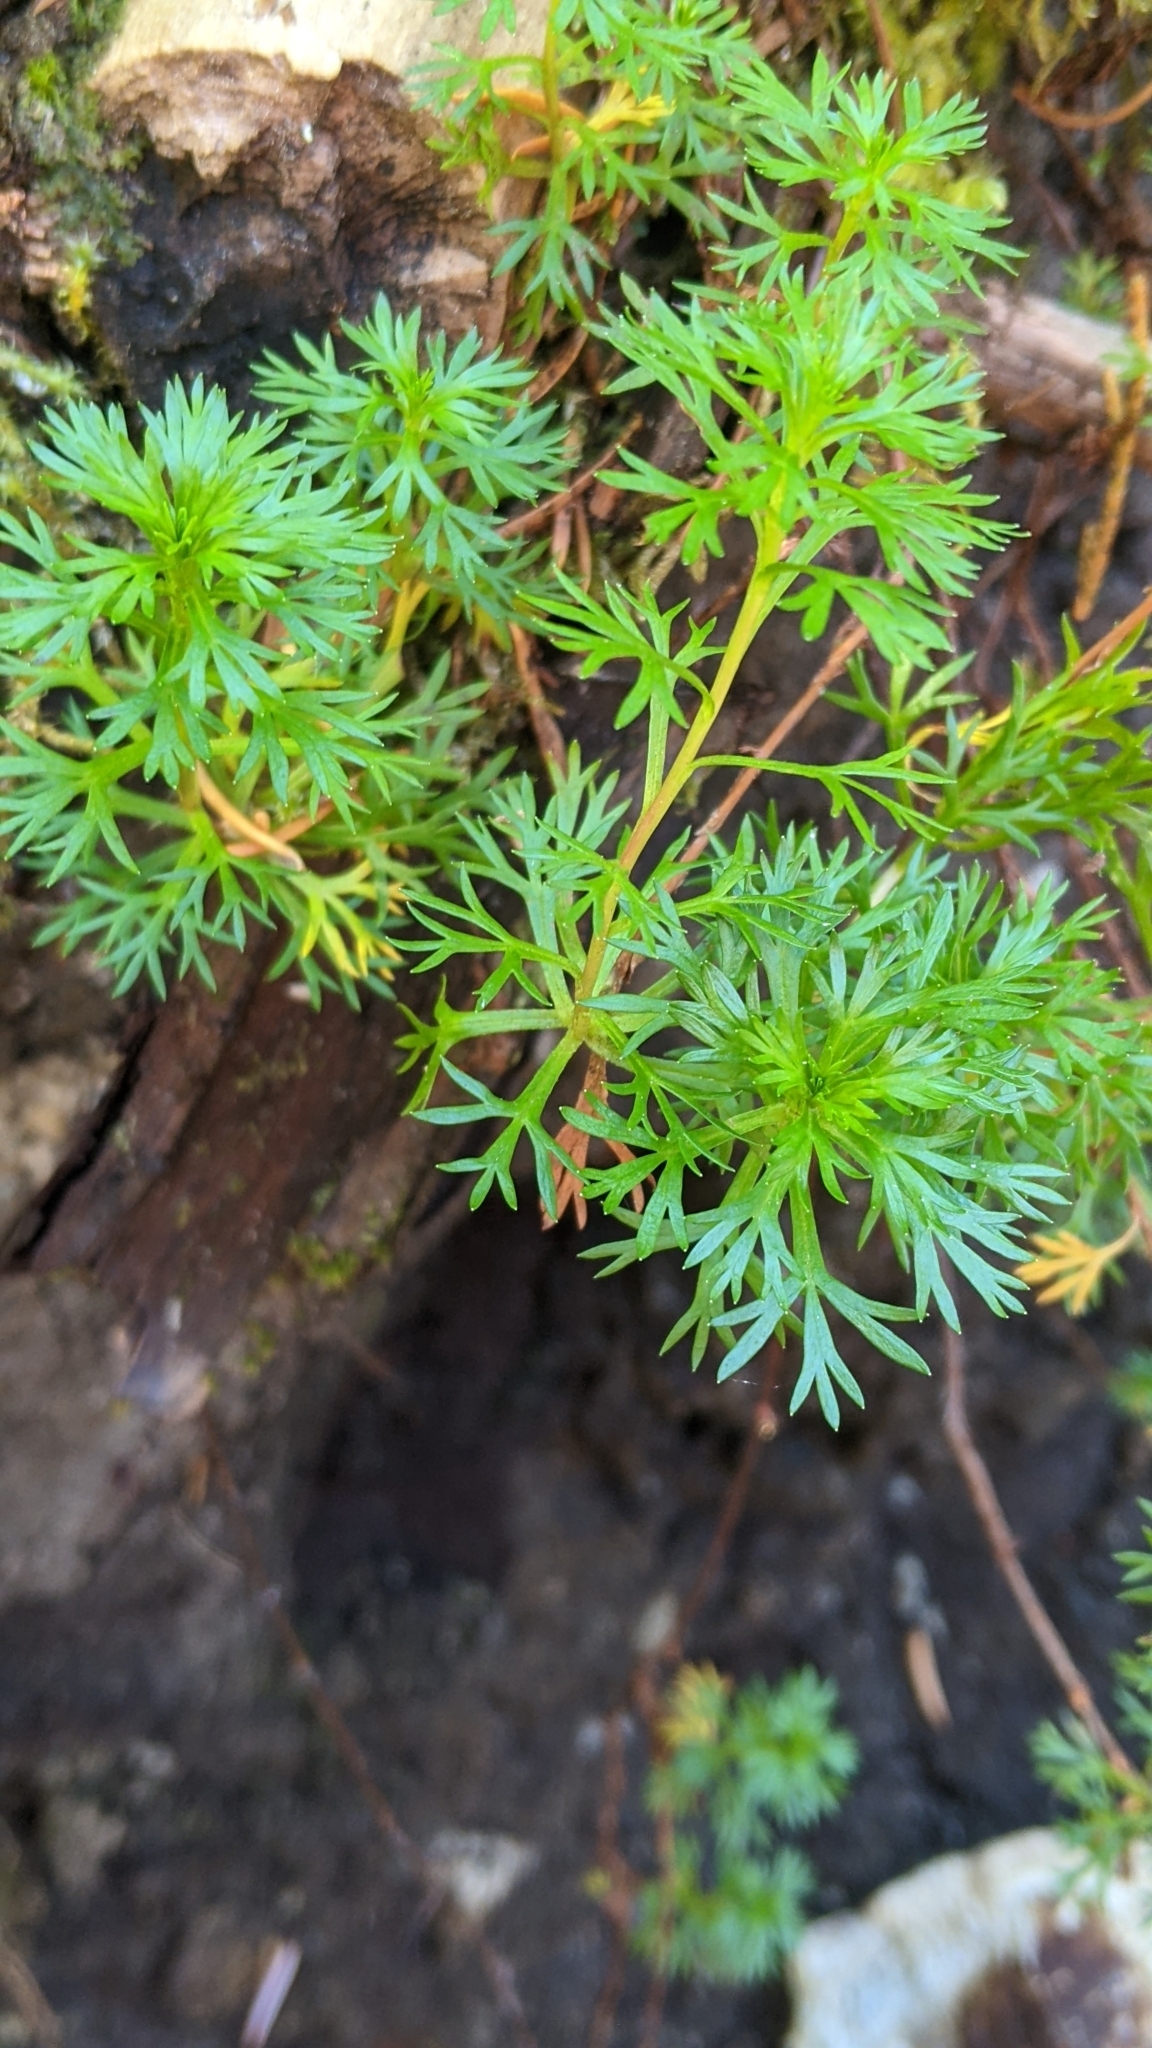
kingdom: Plantae
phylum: Tracheophyta
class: Magnoliopsida
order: Rosales
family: Rosaceae
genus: Luetkea
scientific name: Luetkea pectinata
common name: Partridgefoot
